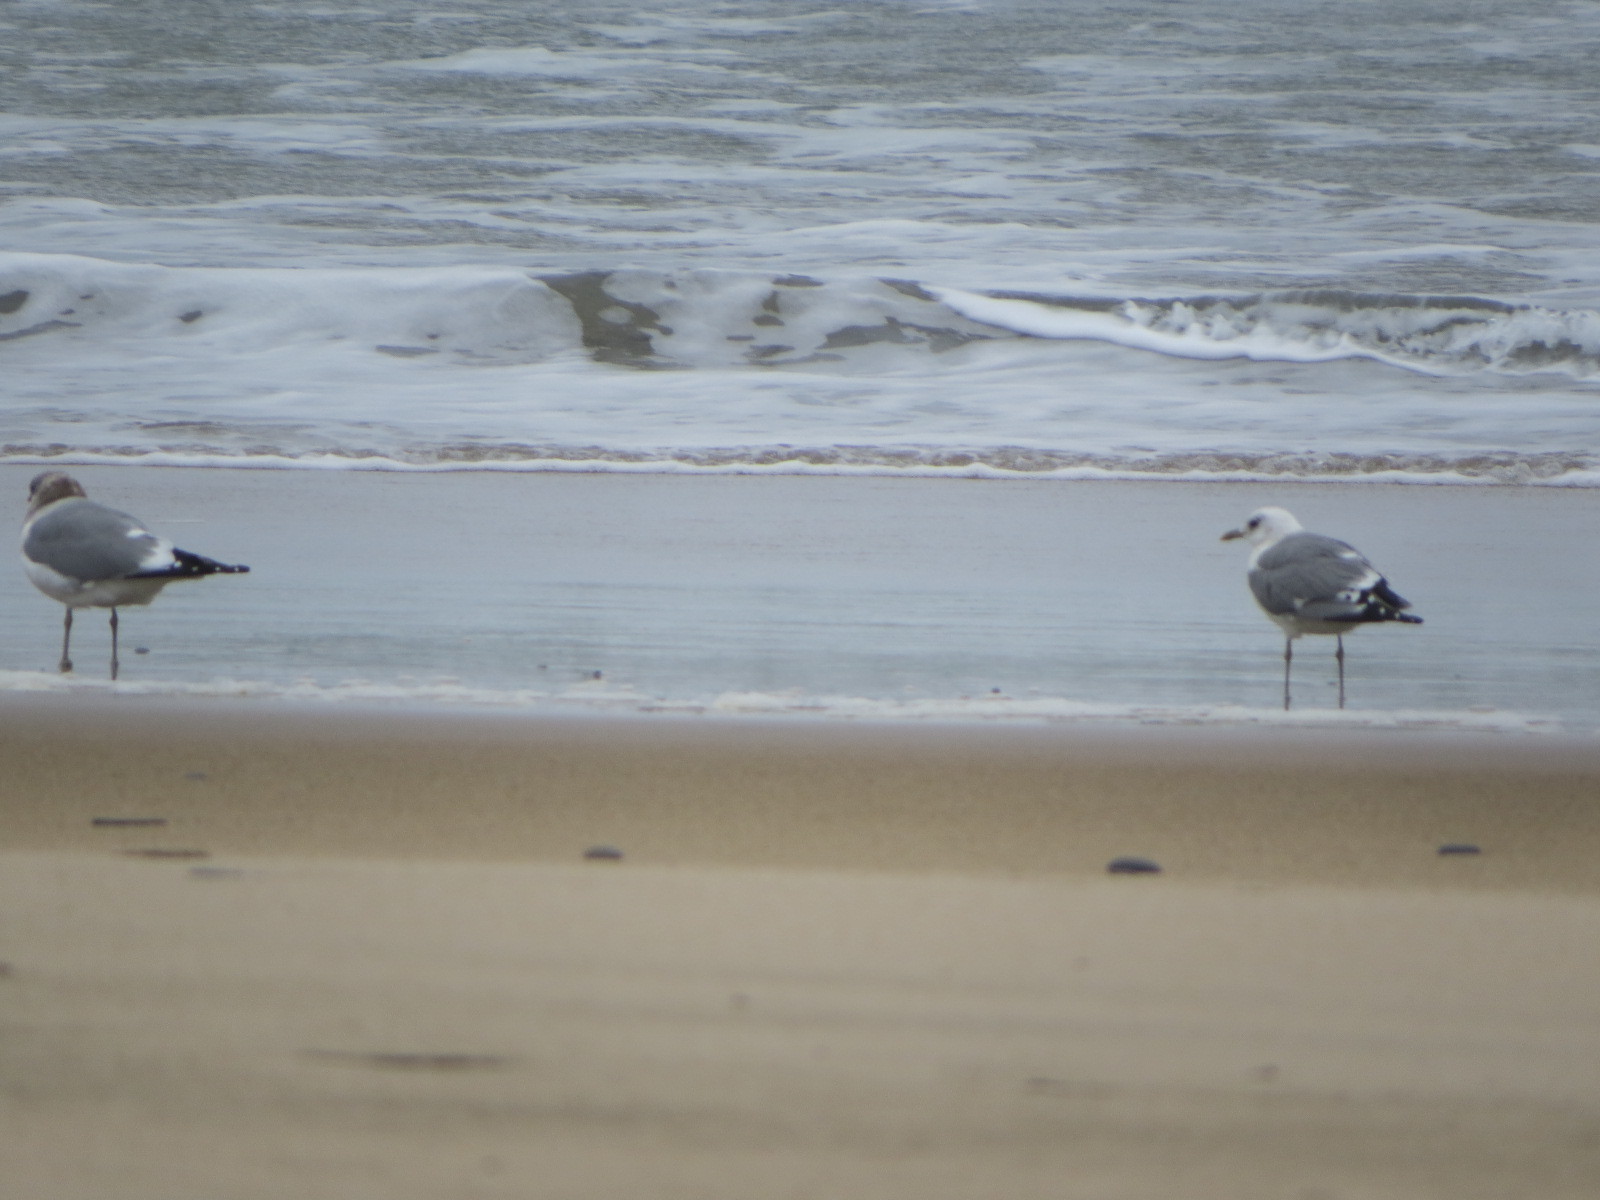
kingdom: Animalia
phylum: Chordata
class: Aves
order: Charadriiformes
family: Laridae
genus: Larus
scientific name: Larus brachyrhynchus
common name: Short-billed gull
